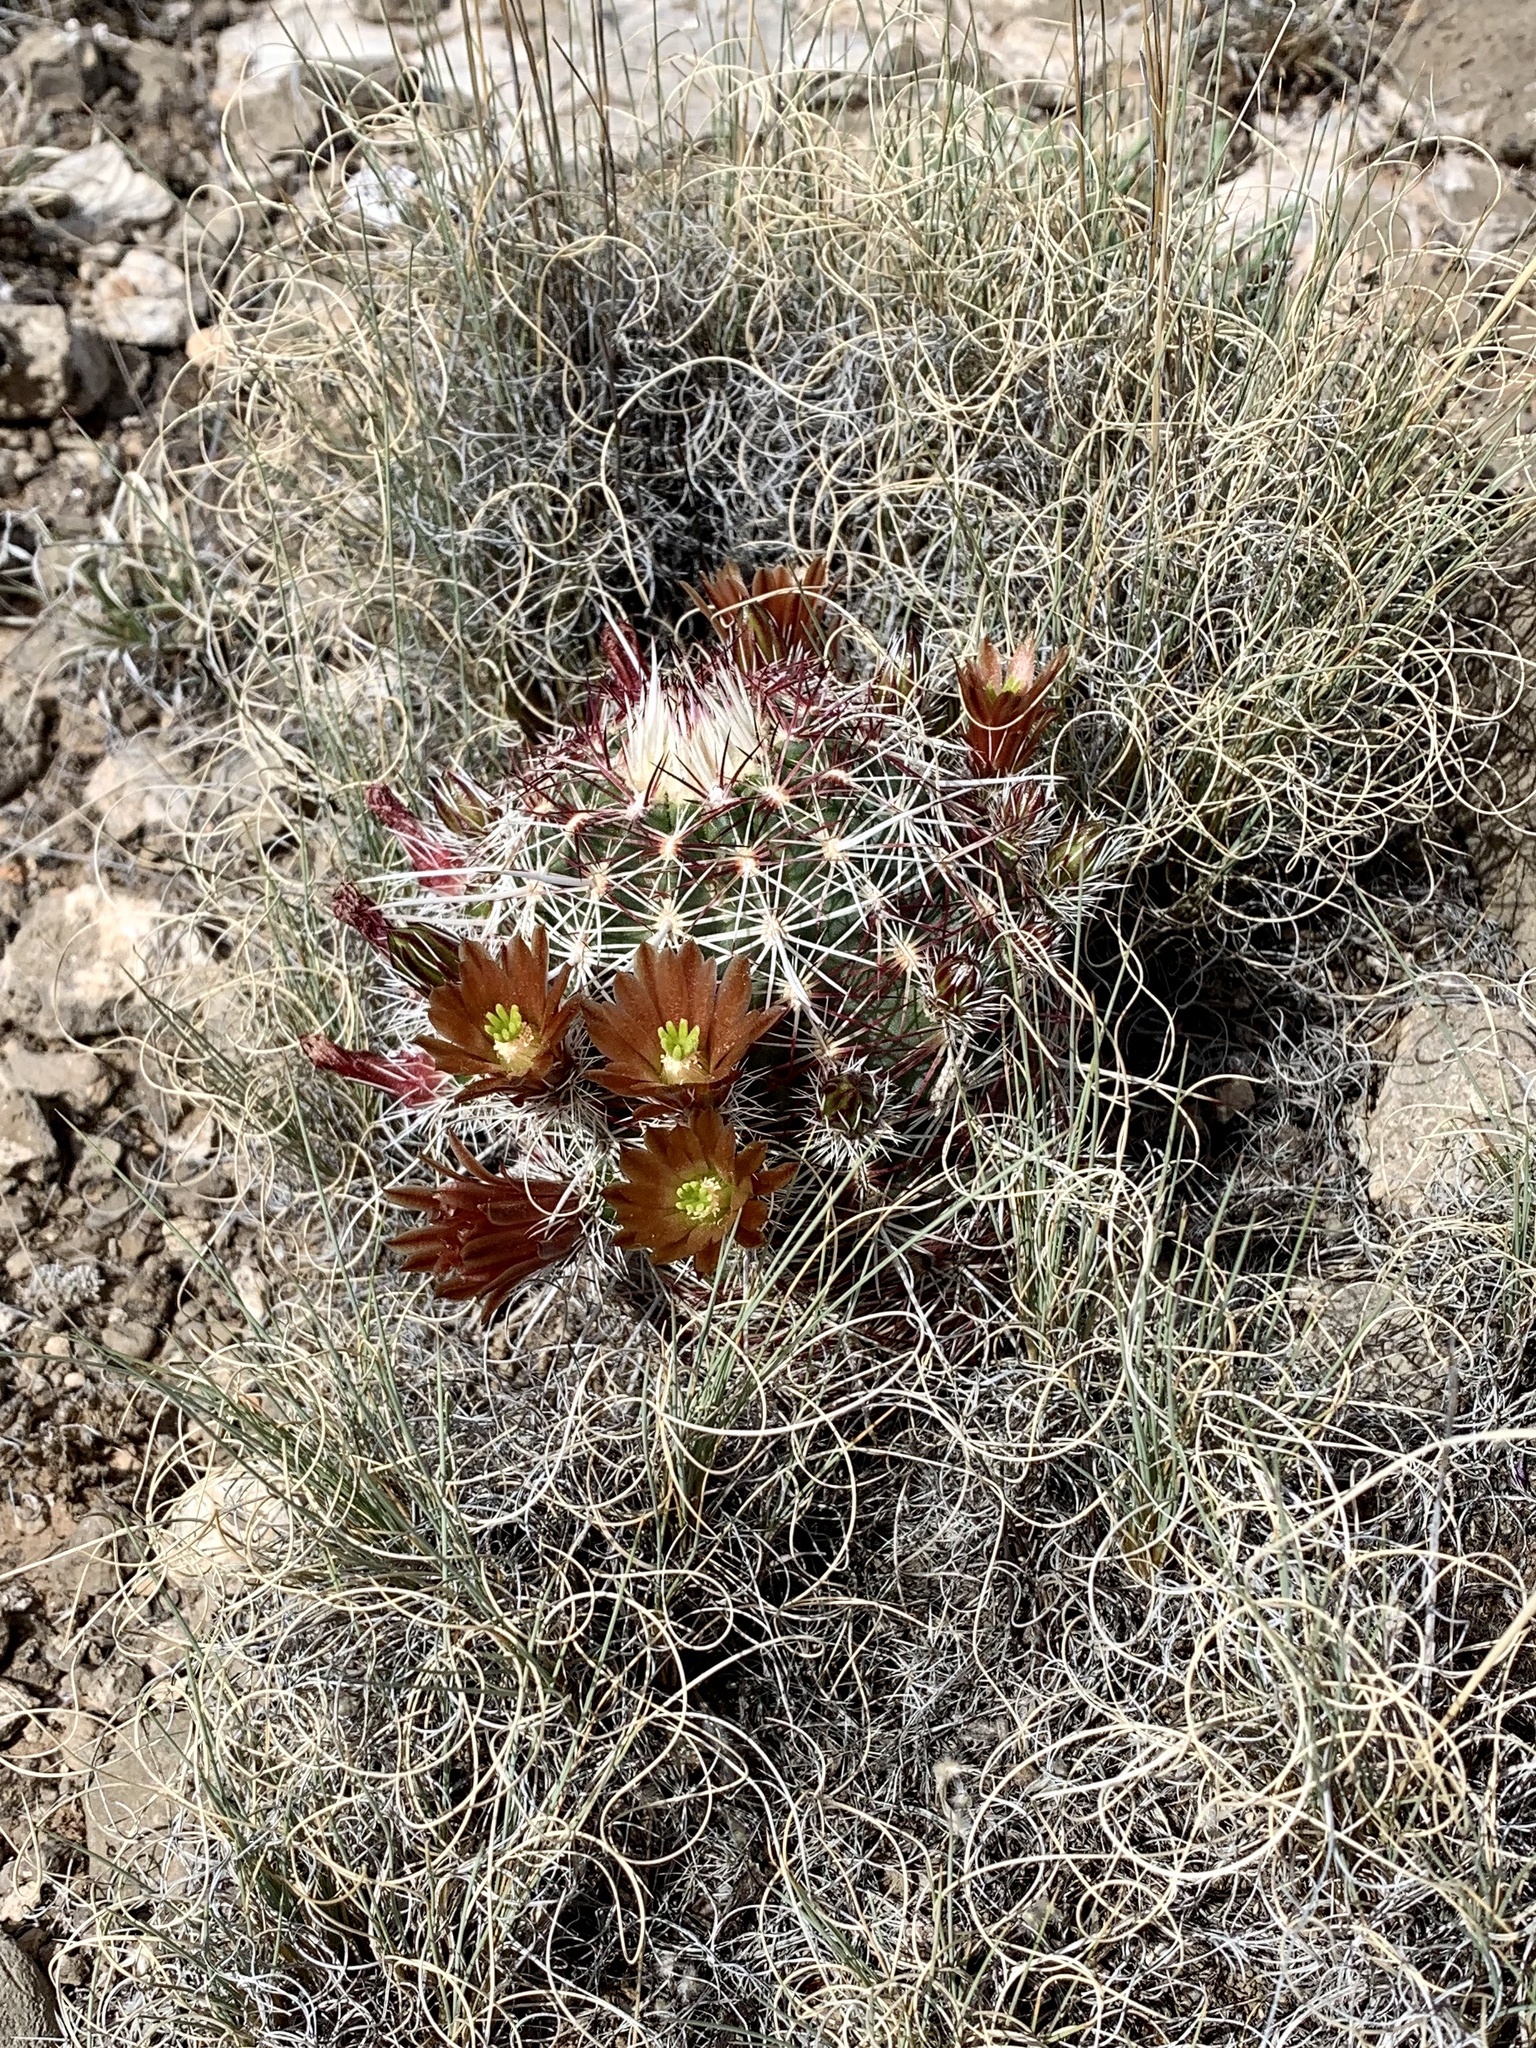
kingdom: Plantae
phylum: Tracheophyta
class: Magnoliopsida
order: Caryophyllales
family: Cactaceae
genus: Echinocereus
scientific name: Echinocereus viridiflorus
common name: Nylon hedgehog cactus
